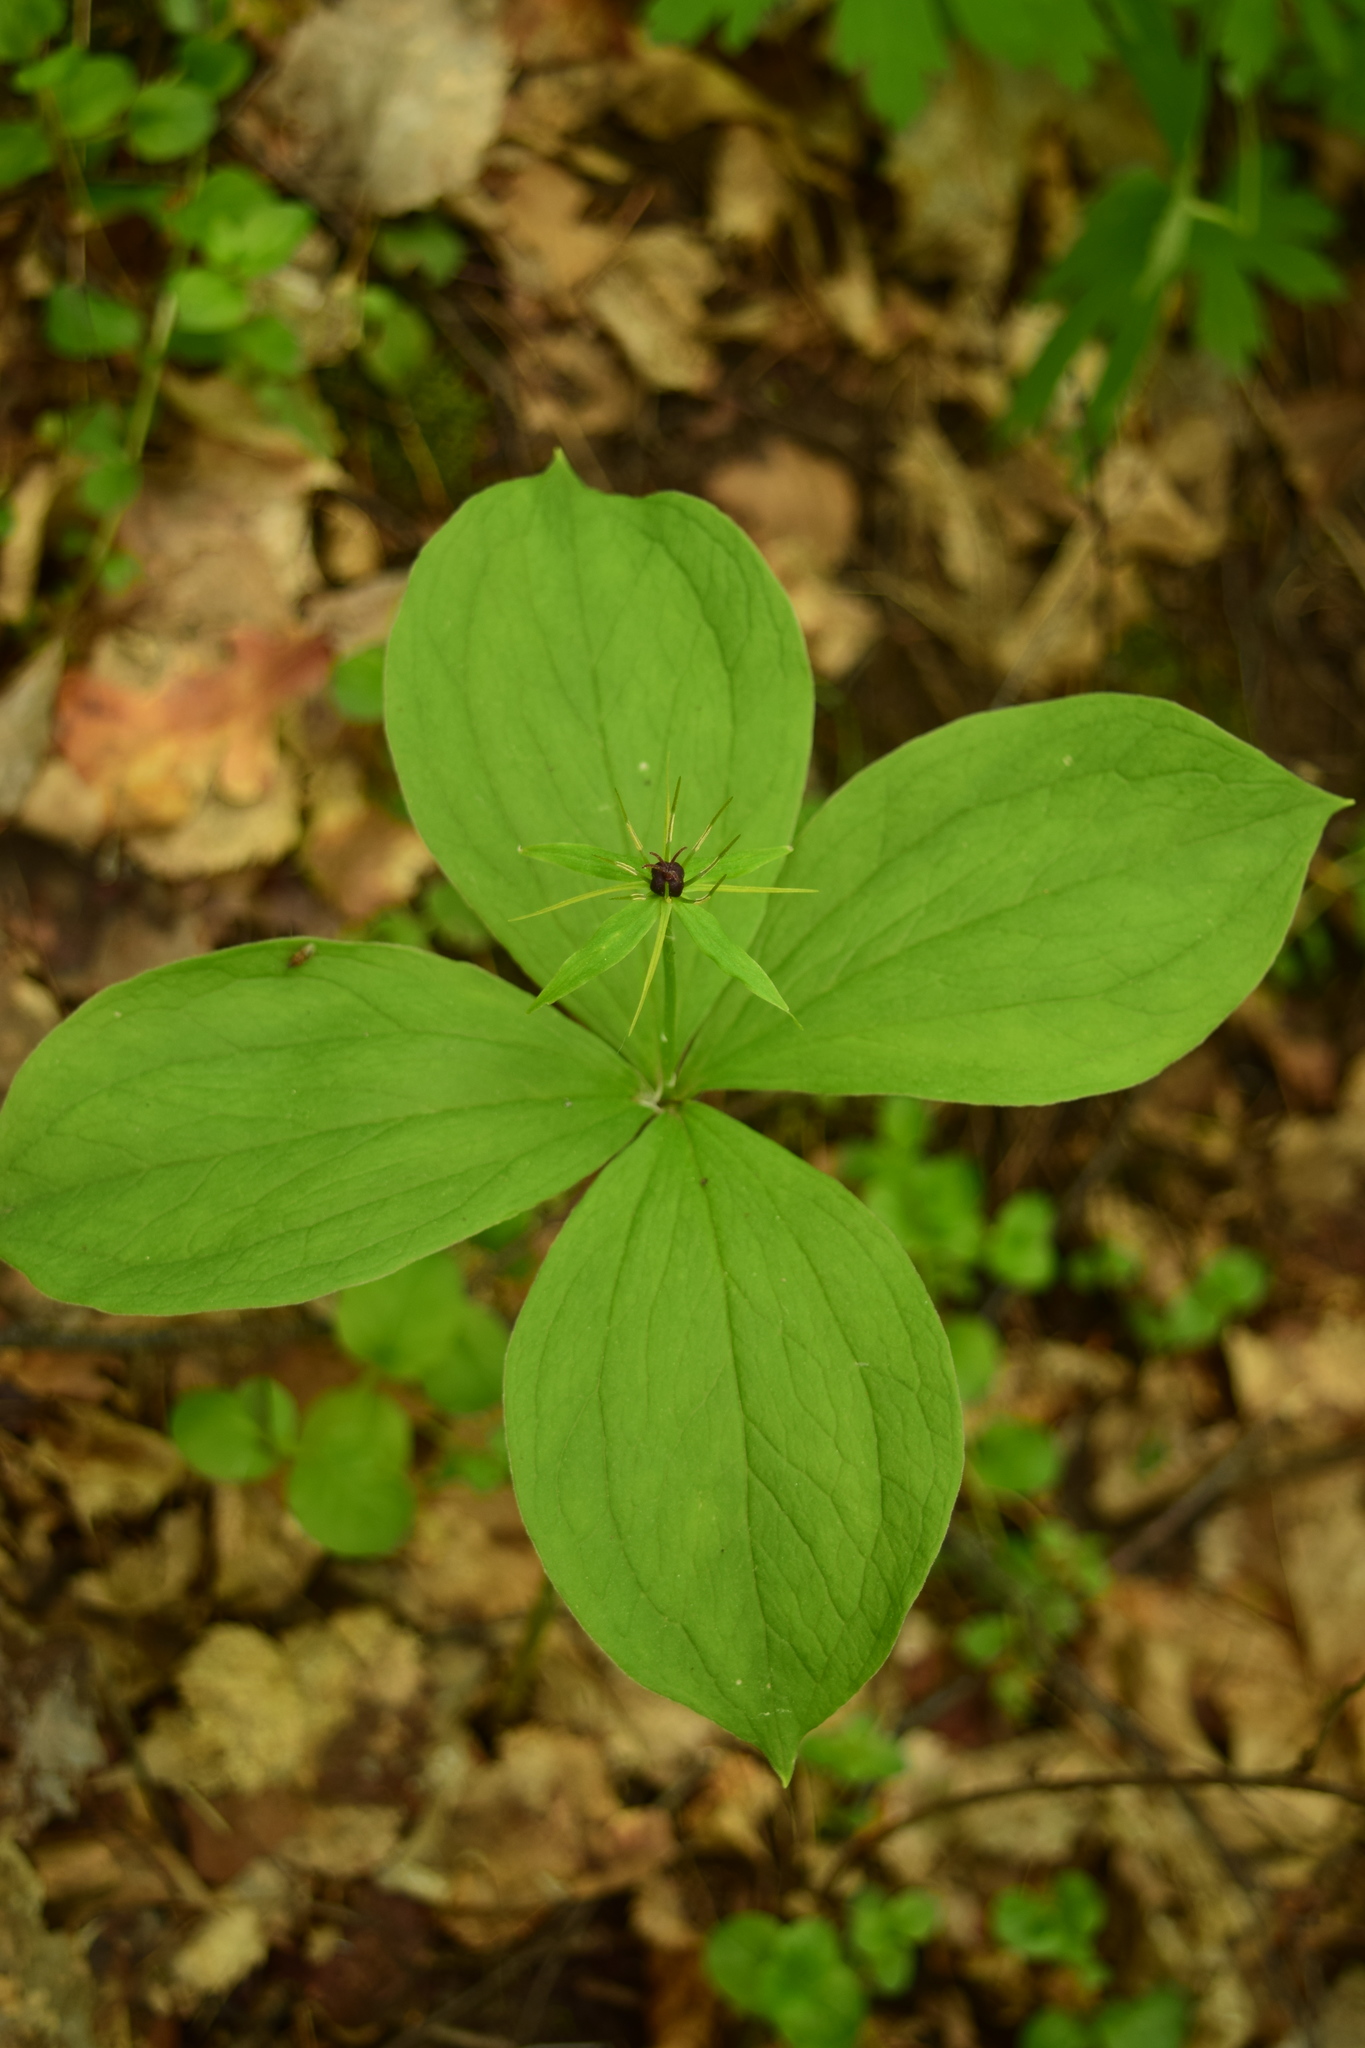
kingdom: Plantae
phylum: Tracheophyta
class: Liliopsida
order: Liliales
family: Melanthiaceae
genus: Paris
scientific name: Paris quadrifolia
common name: Herb-paris
